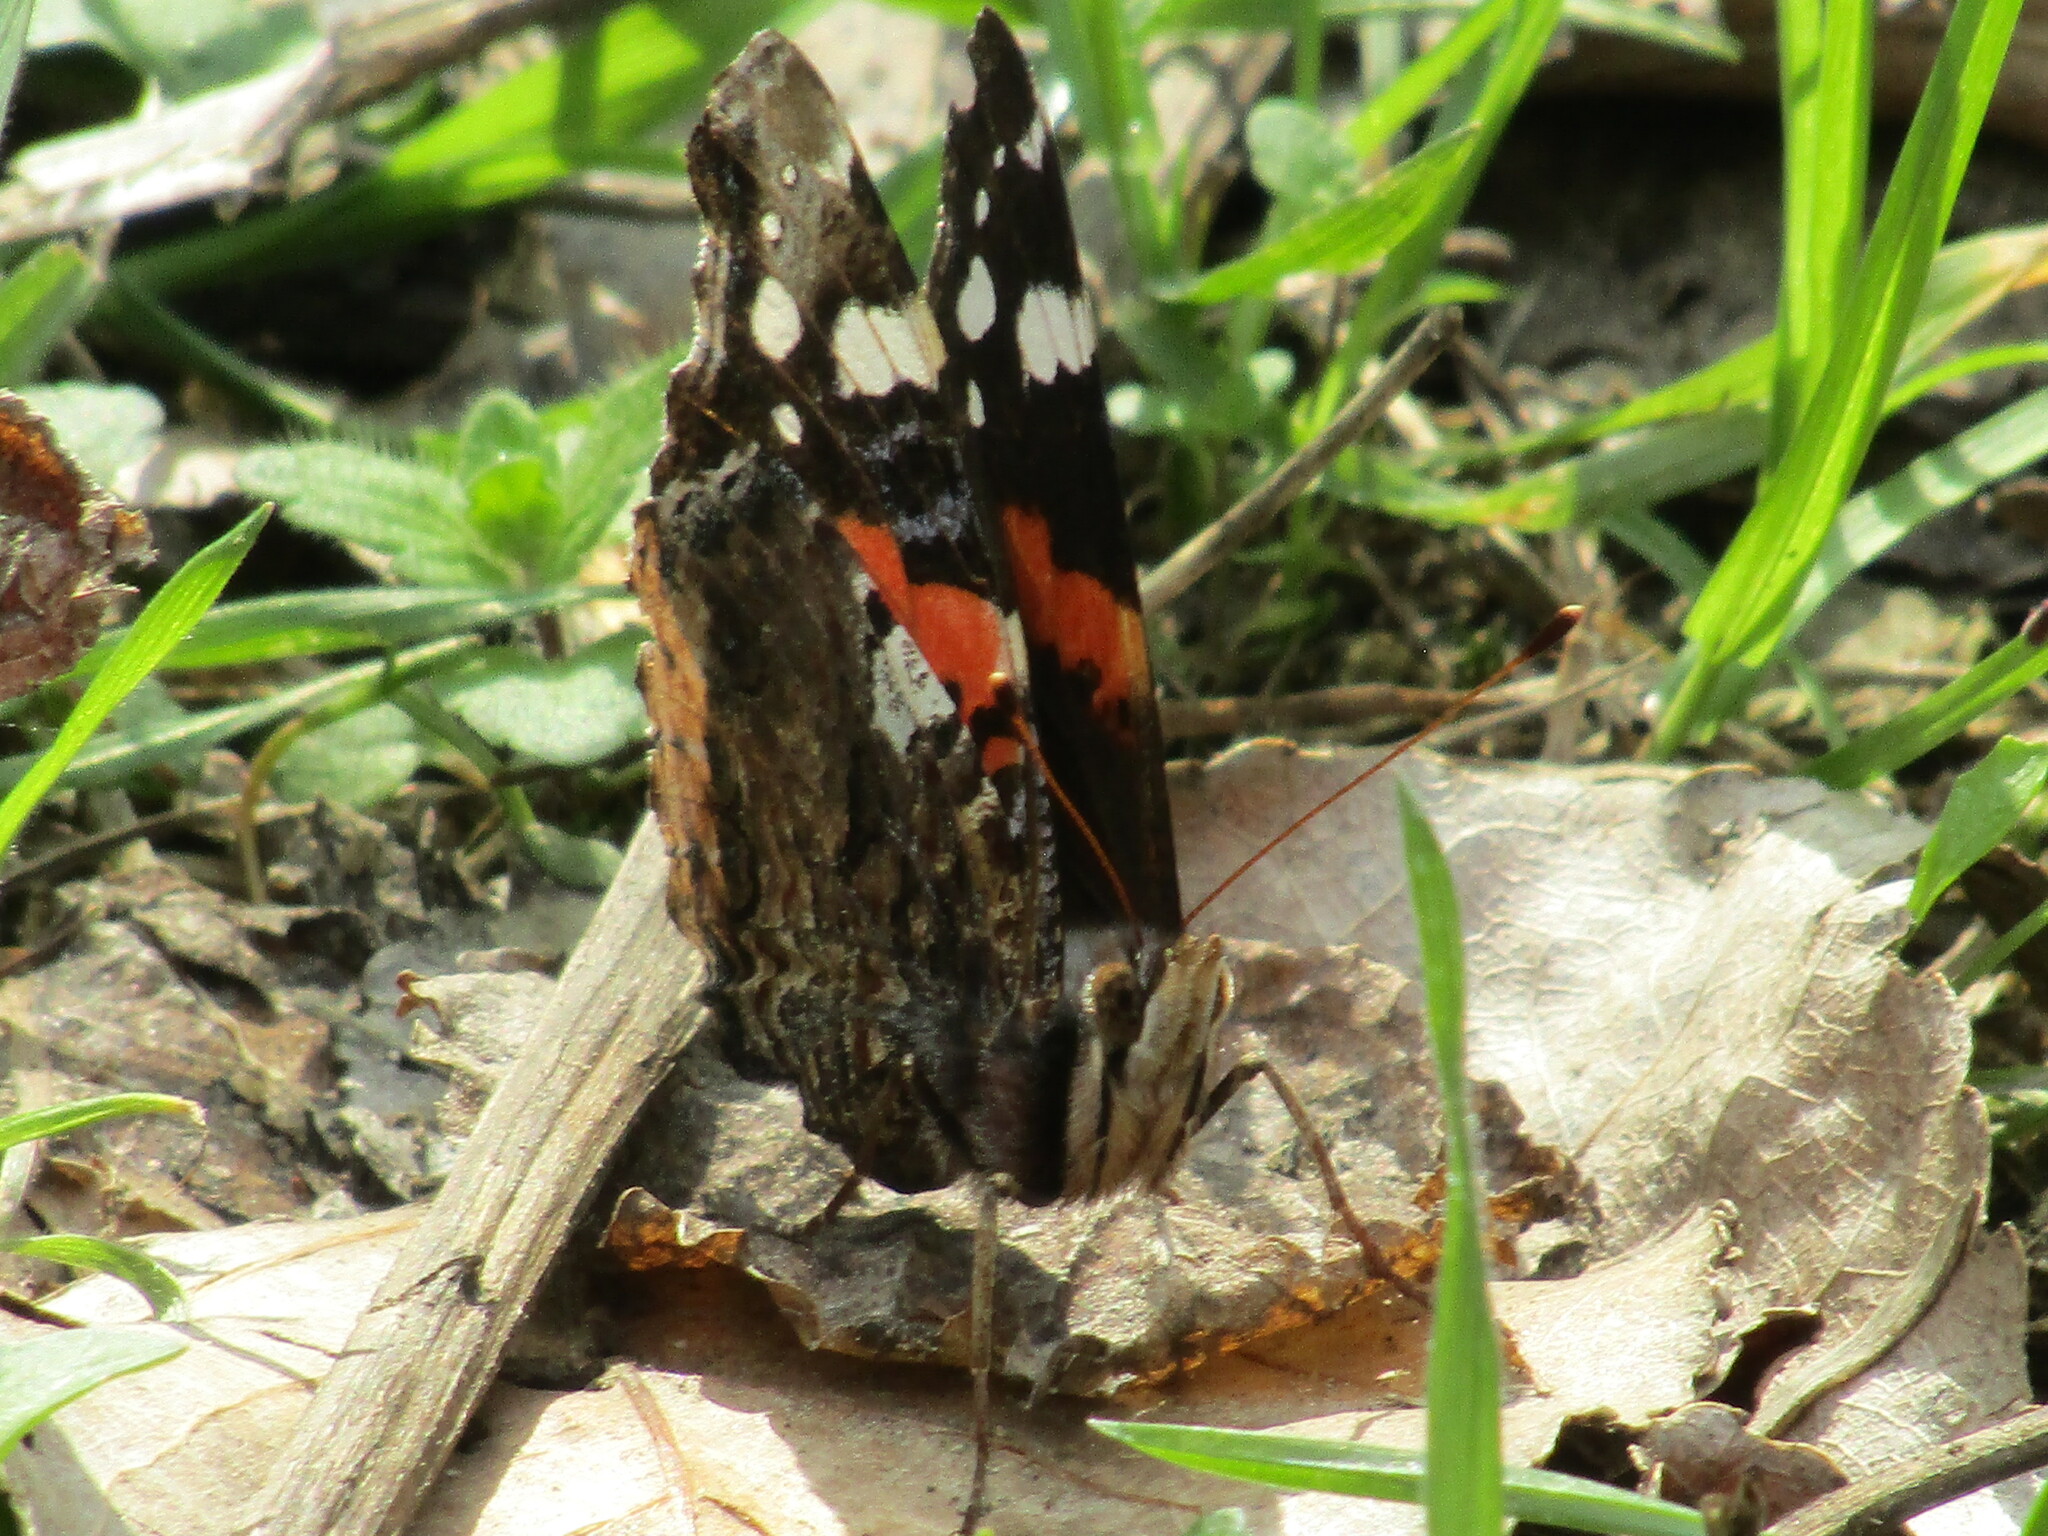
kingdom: Animalia
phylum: Arthropoda
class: Insecta
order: Lepidoptera
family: Nymphalidae
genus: Vanessa
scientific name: Vanessa atalanta
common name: Red admiral
